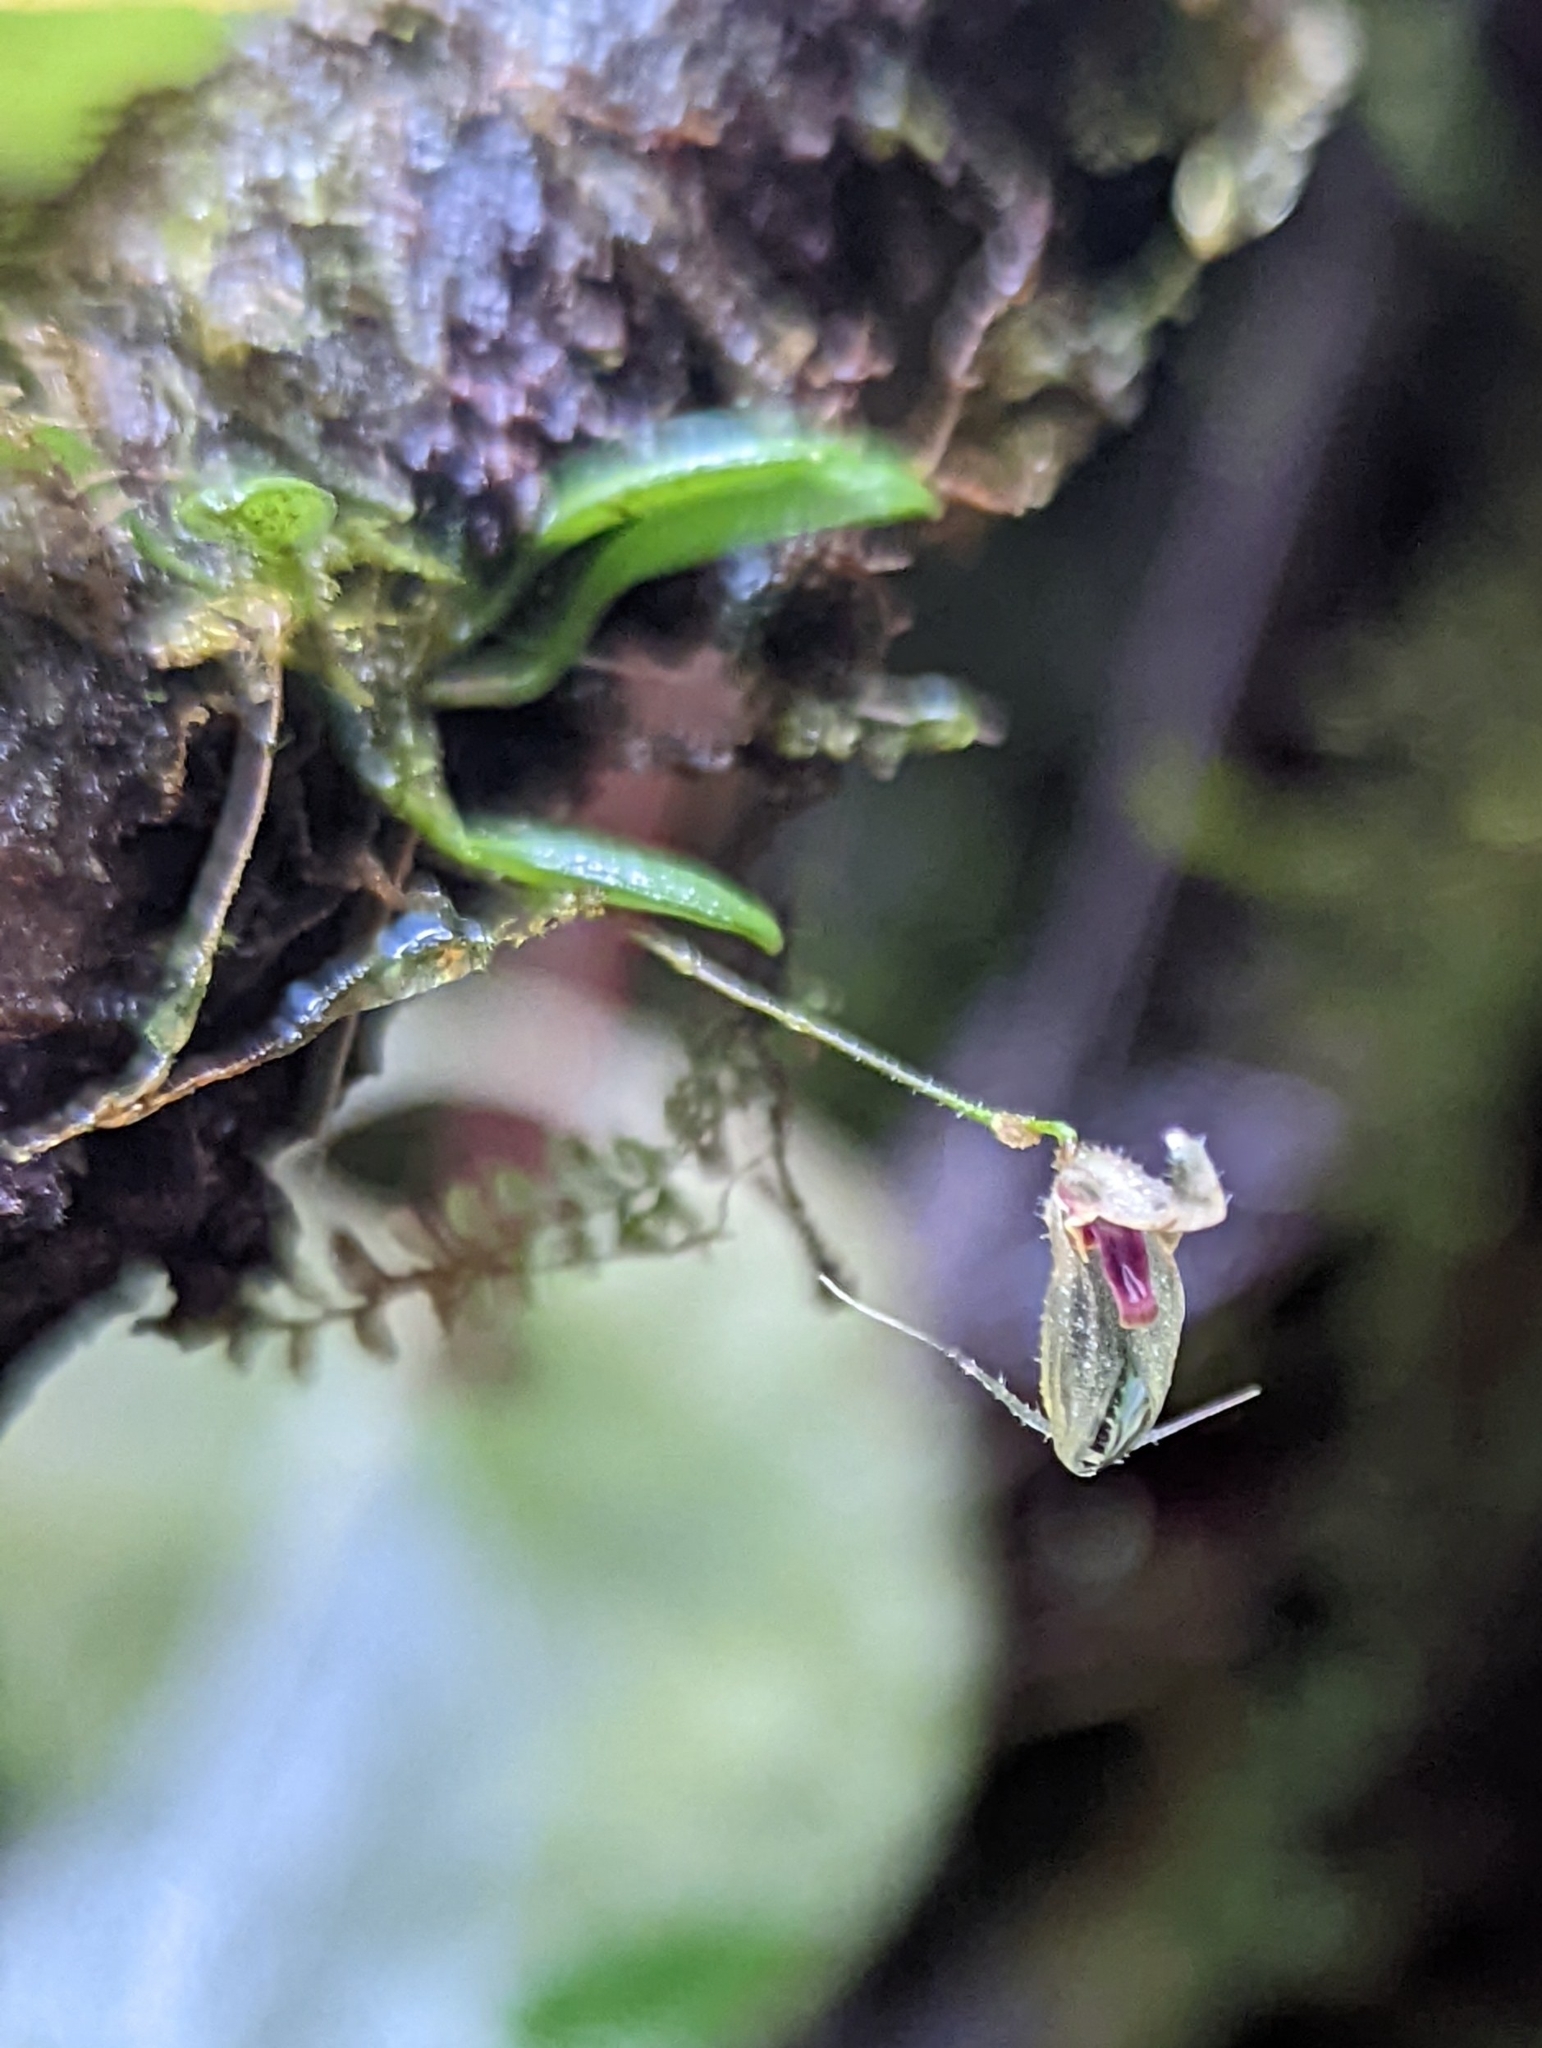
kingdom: Plantae
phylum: Tracheophyta
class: Liliopsida
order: Asparagales
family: Orchidaceae
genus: Specklinia
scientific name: Specklinia cactantha
